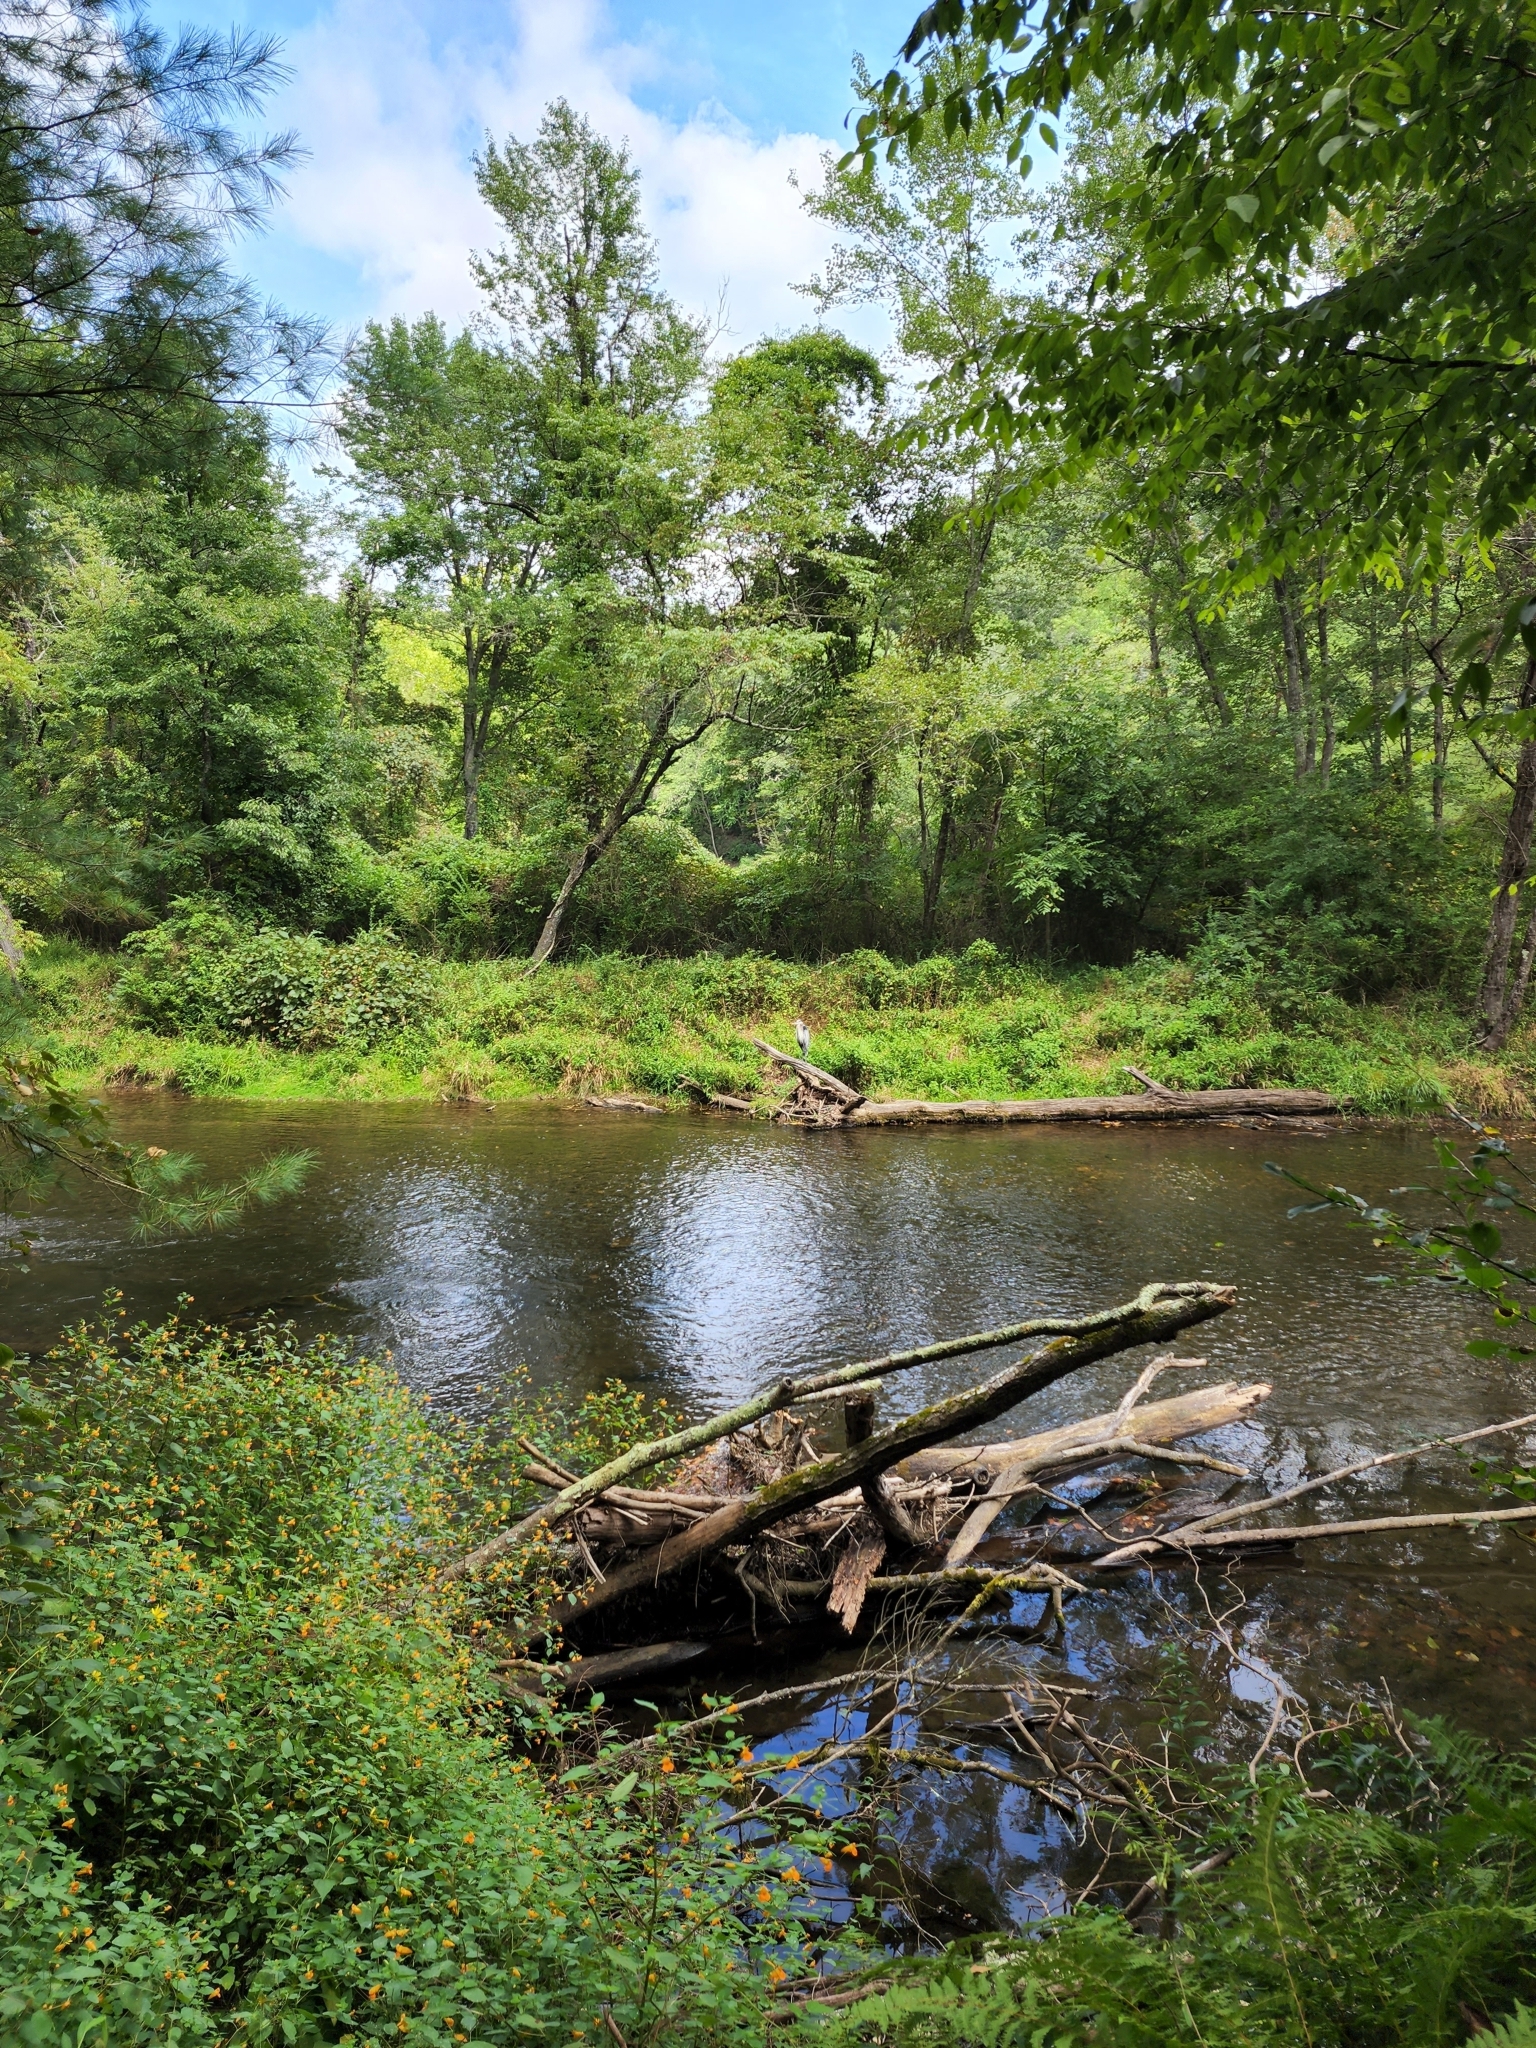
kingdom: Animalia
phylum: Chordata
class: Aves
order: Pelecaniformes
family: Ardeidae
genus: Ardea
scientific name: Ardea herodias
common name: Great blue heron
